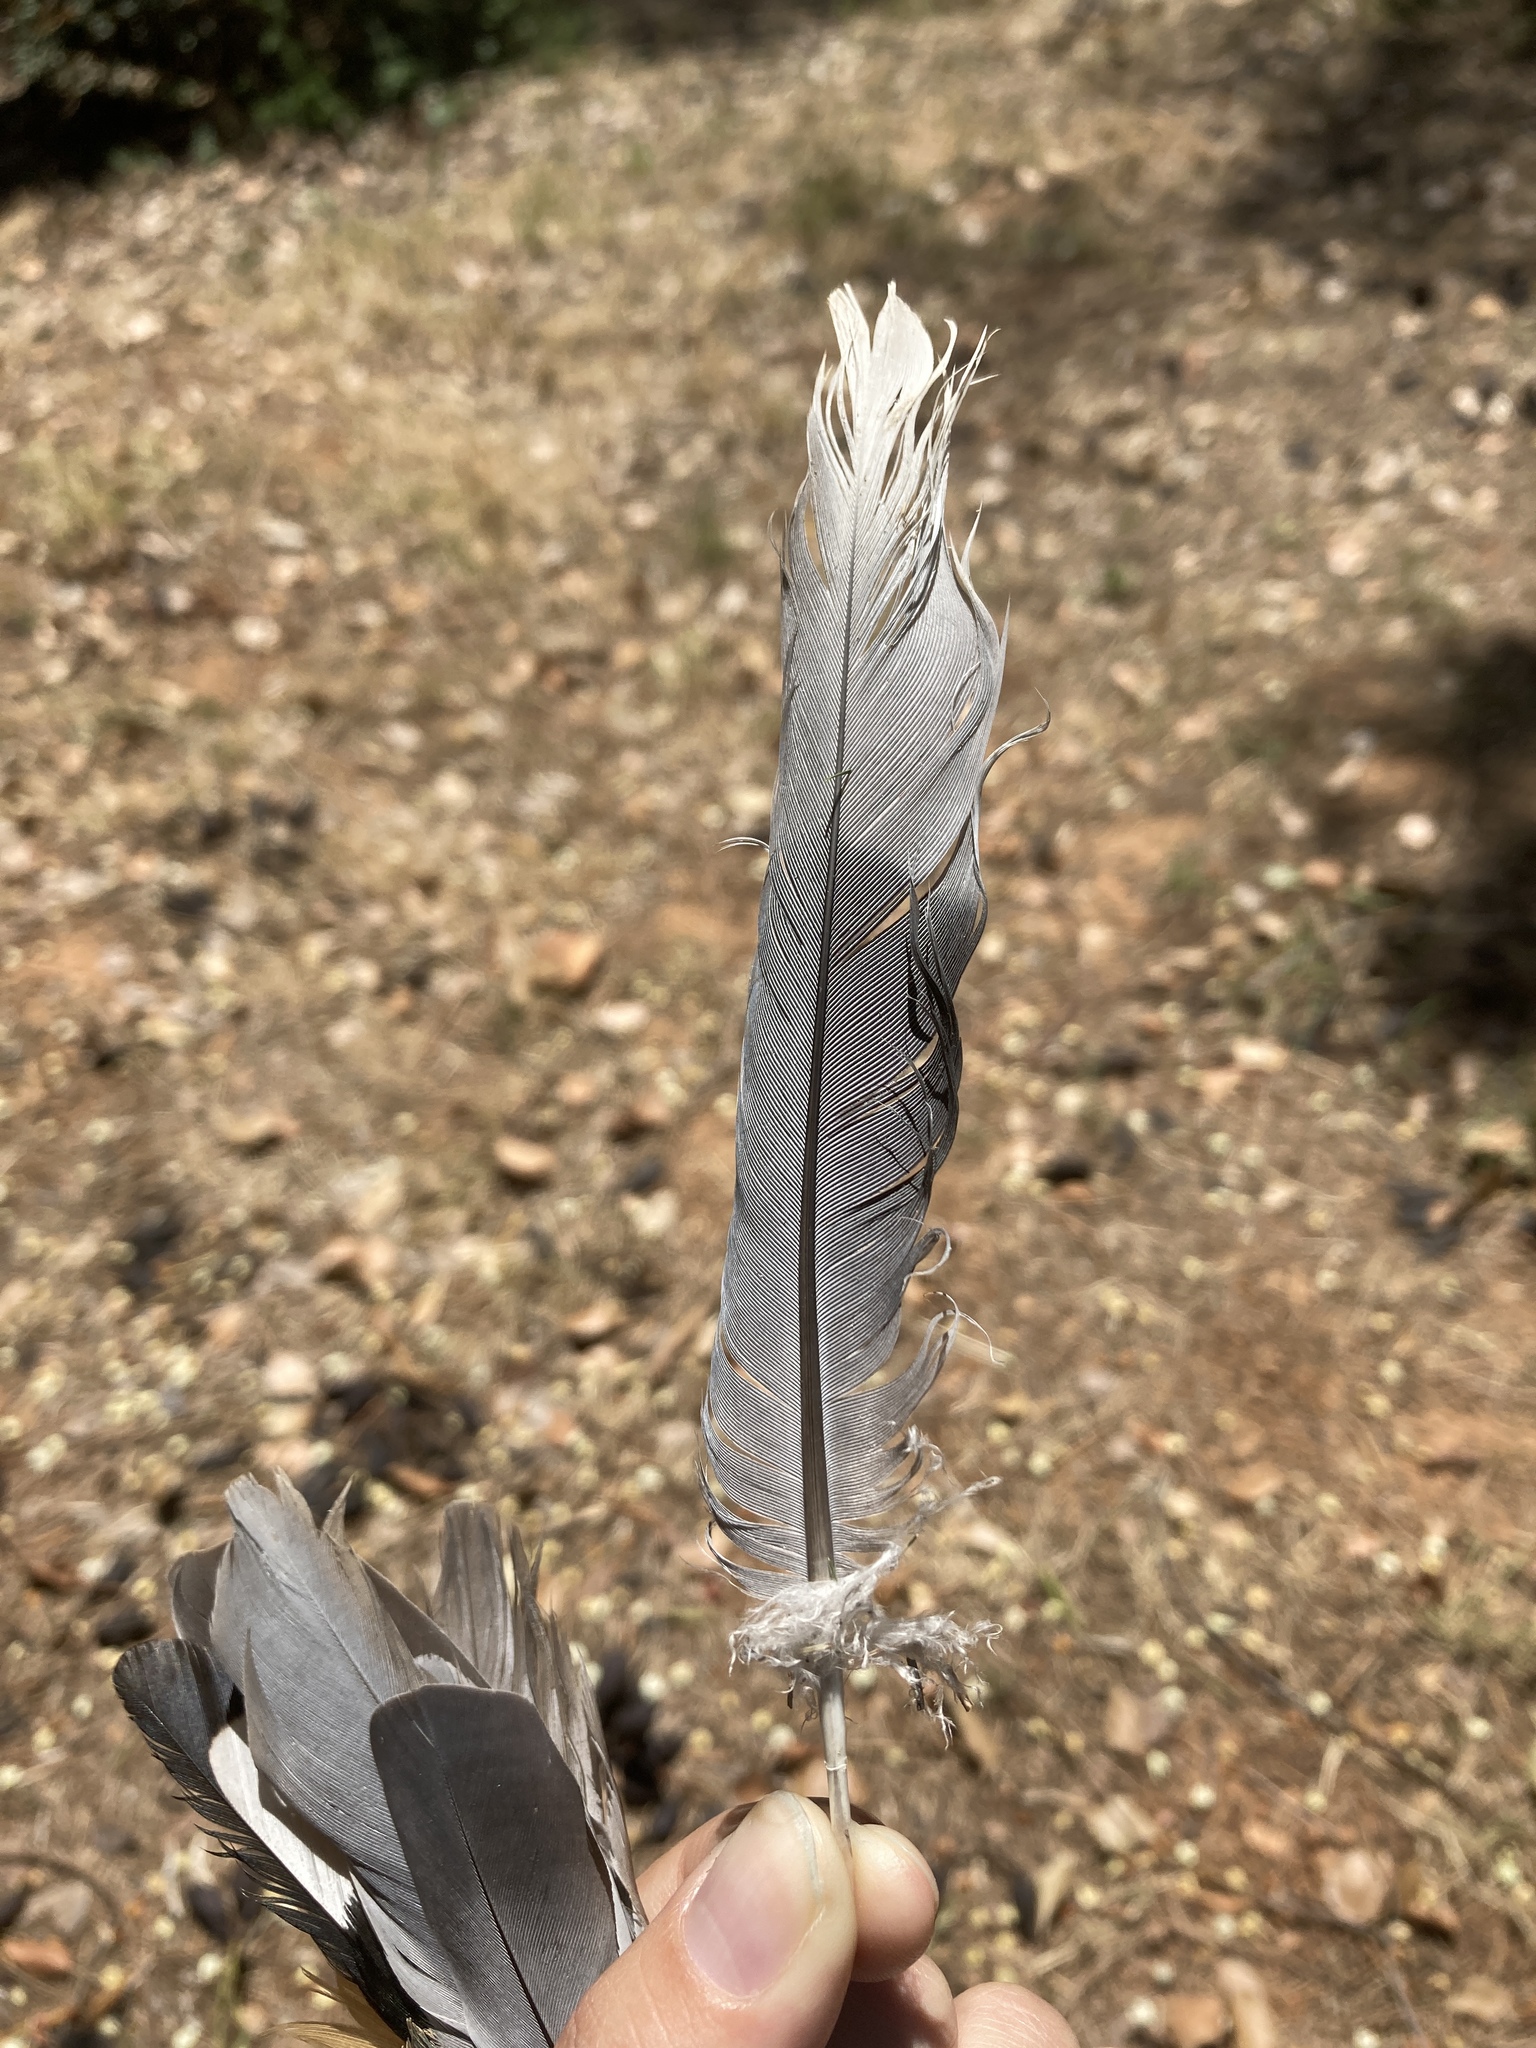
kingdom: Animalia
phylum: Chordata
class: Aves
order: Columbiformes
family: Columbidae
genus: Streptopelia
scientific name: Streptopelia decaocto
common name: Eurasian collared dove
